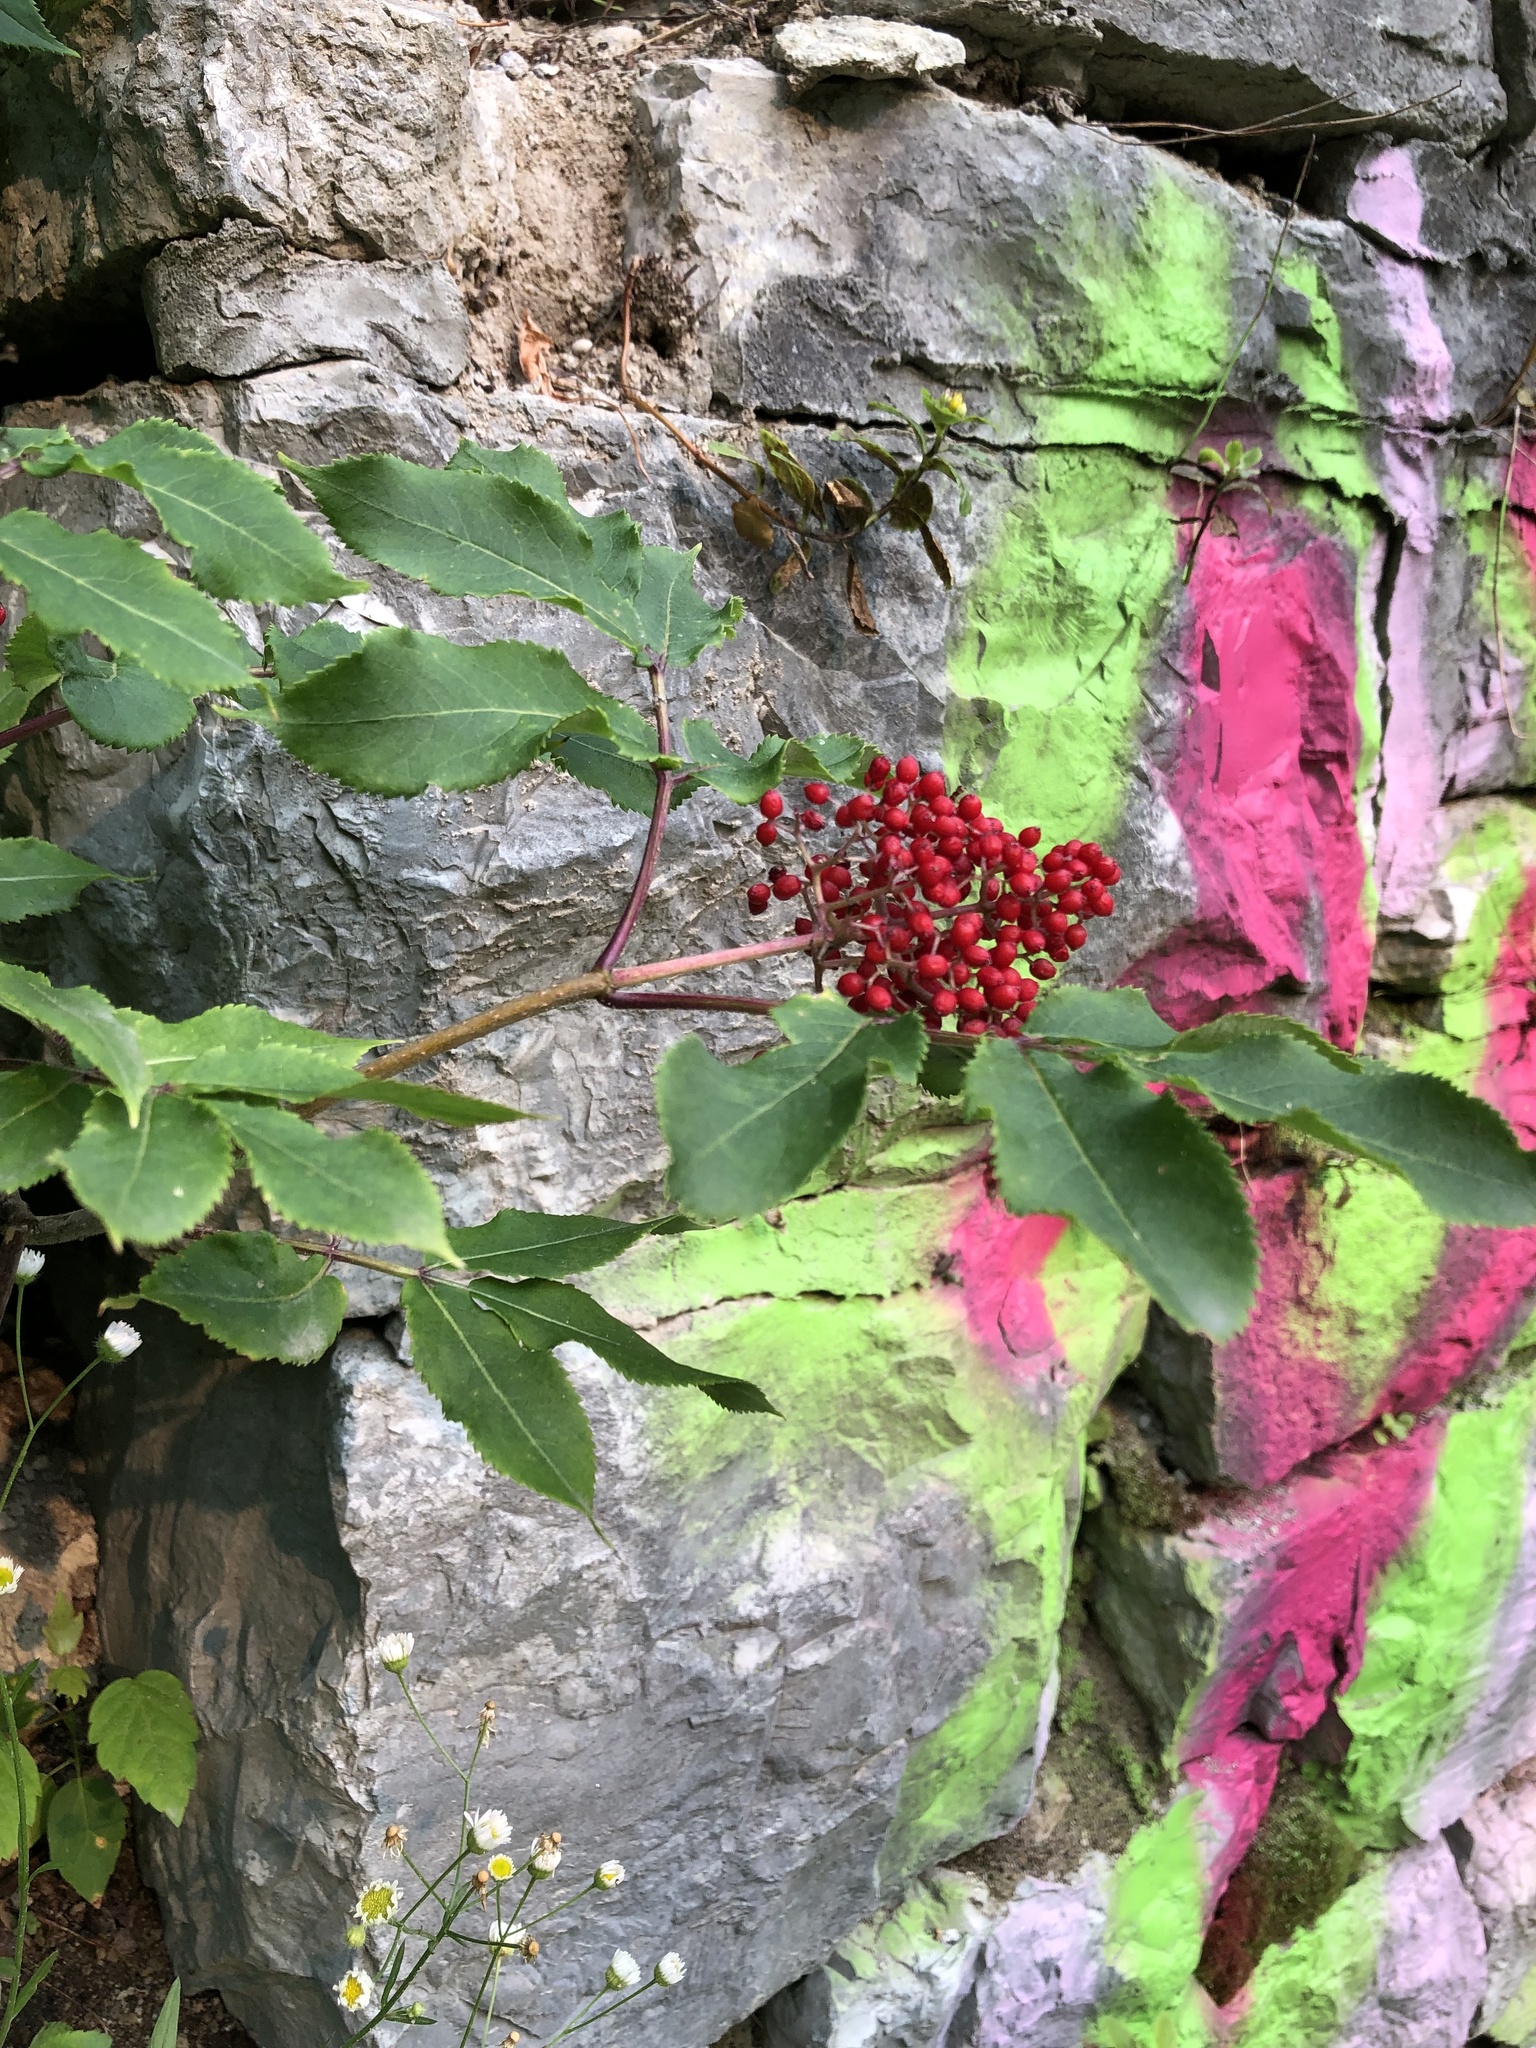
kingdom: Plantae
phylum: Tracheophyta
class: Magnoliopsida
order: Dipsacales
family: Viburnaceae
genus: Sambucus
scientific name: Sambucus racemosa
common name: Red-berried elder
